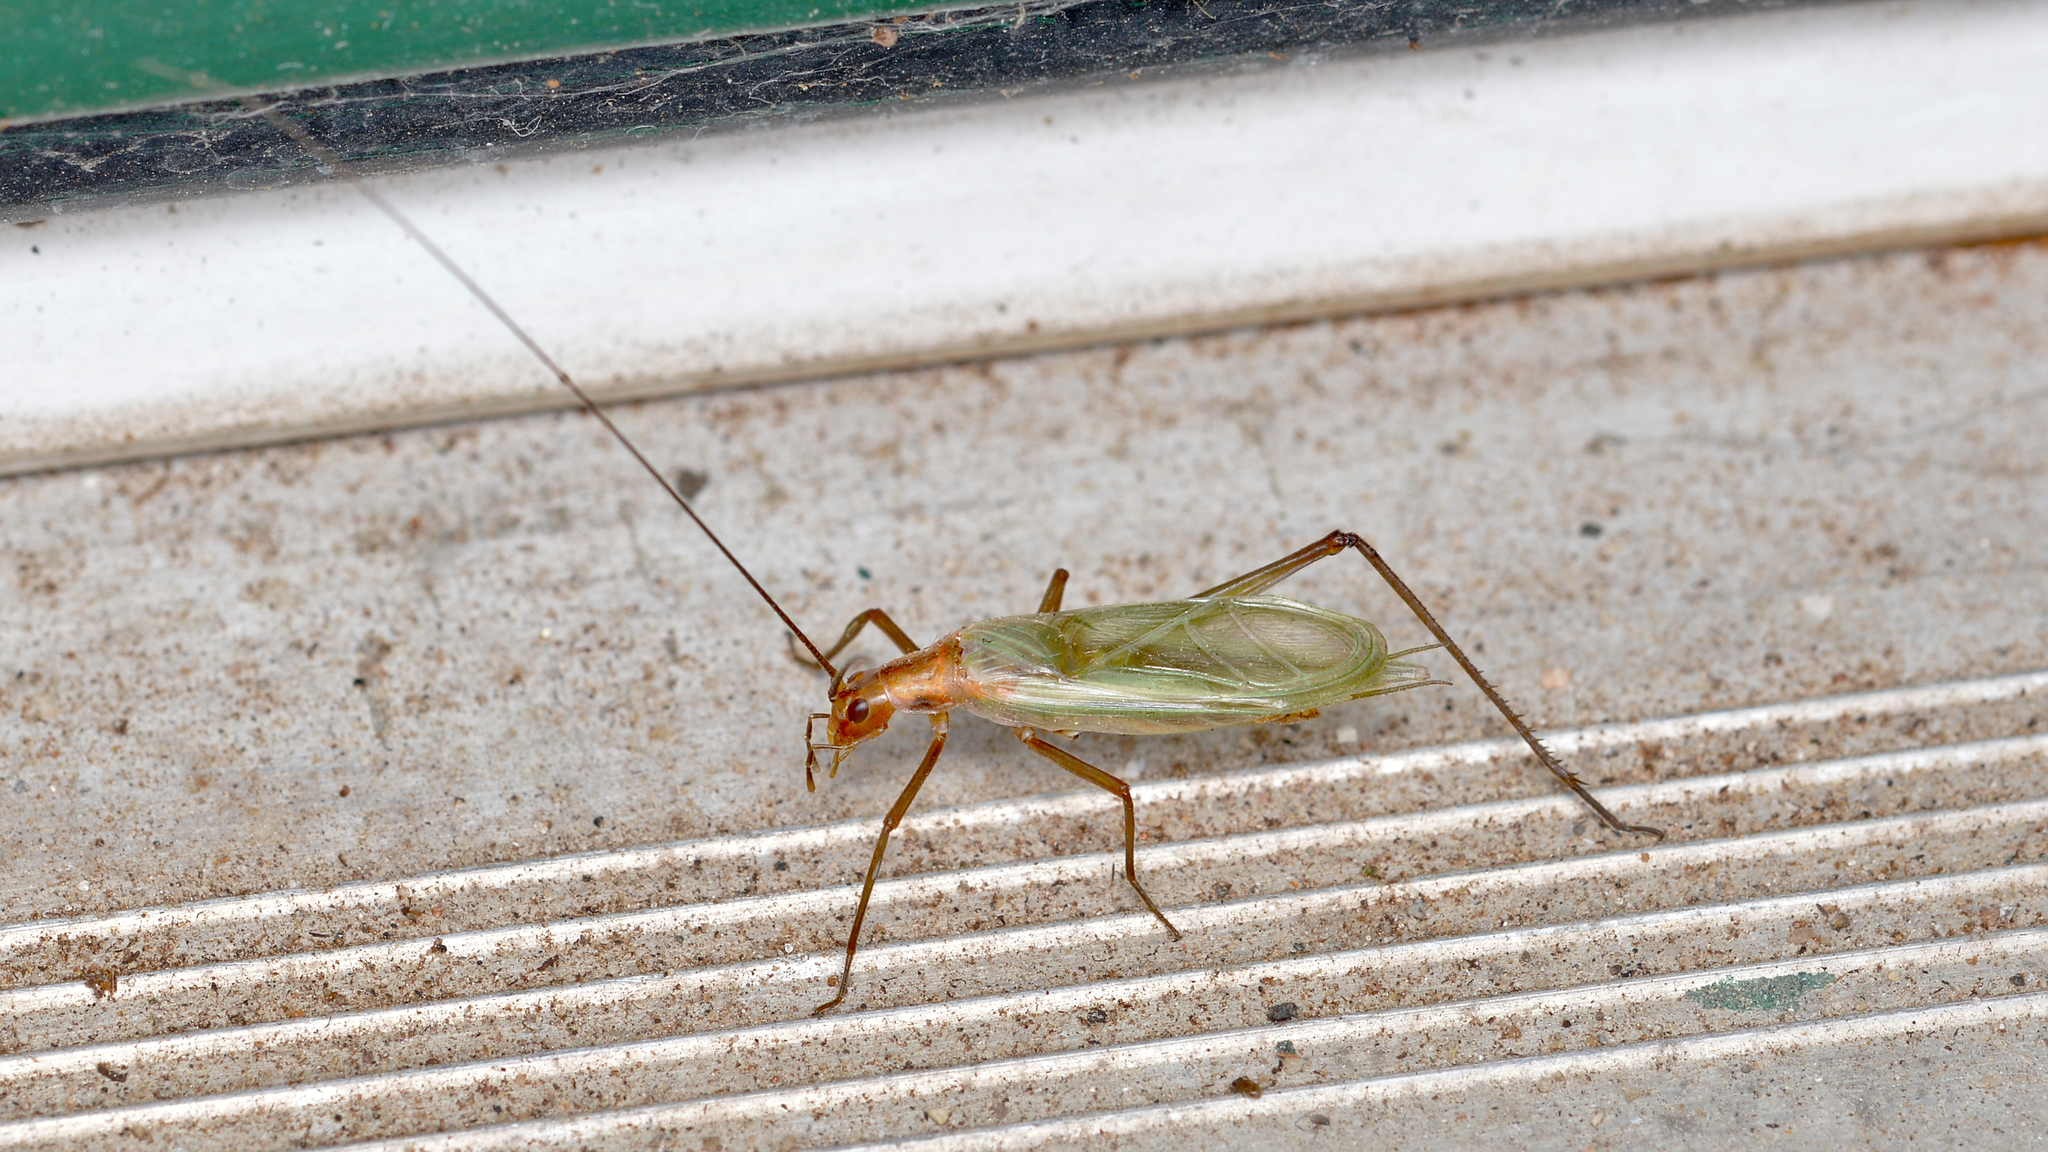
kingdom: Animalia
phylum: Arthropoda
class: Insecta
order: Orthoptera
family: Gryllidae
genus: Oecanthus
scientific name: Oecanthus pini
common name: Pine tree cricket
